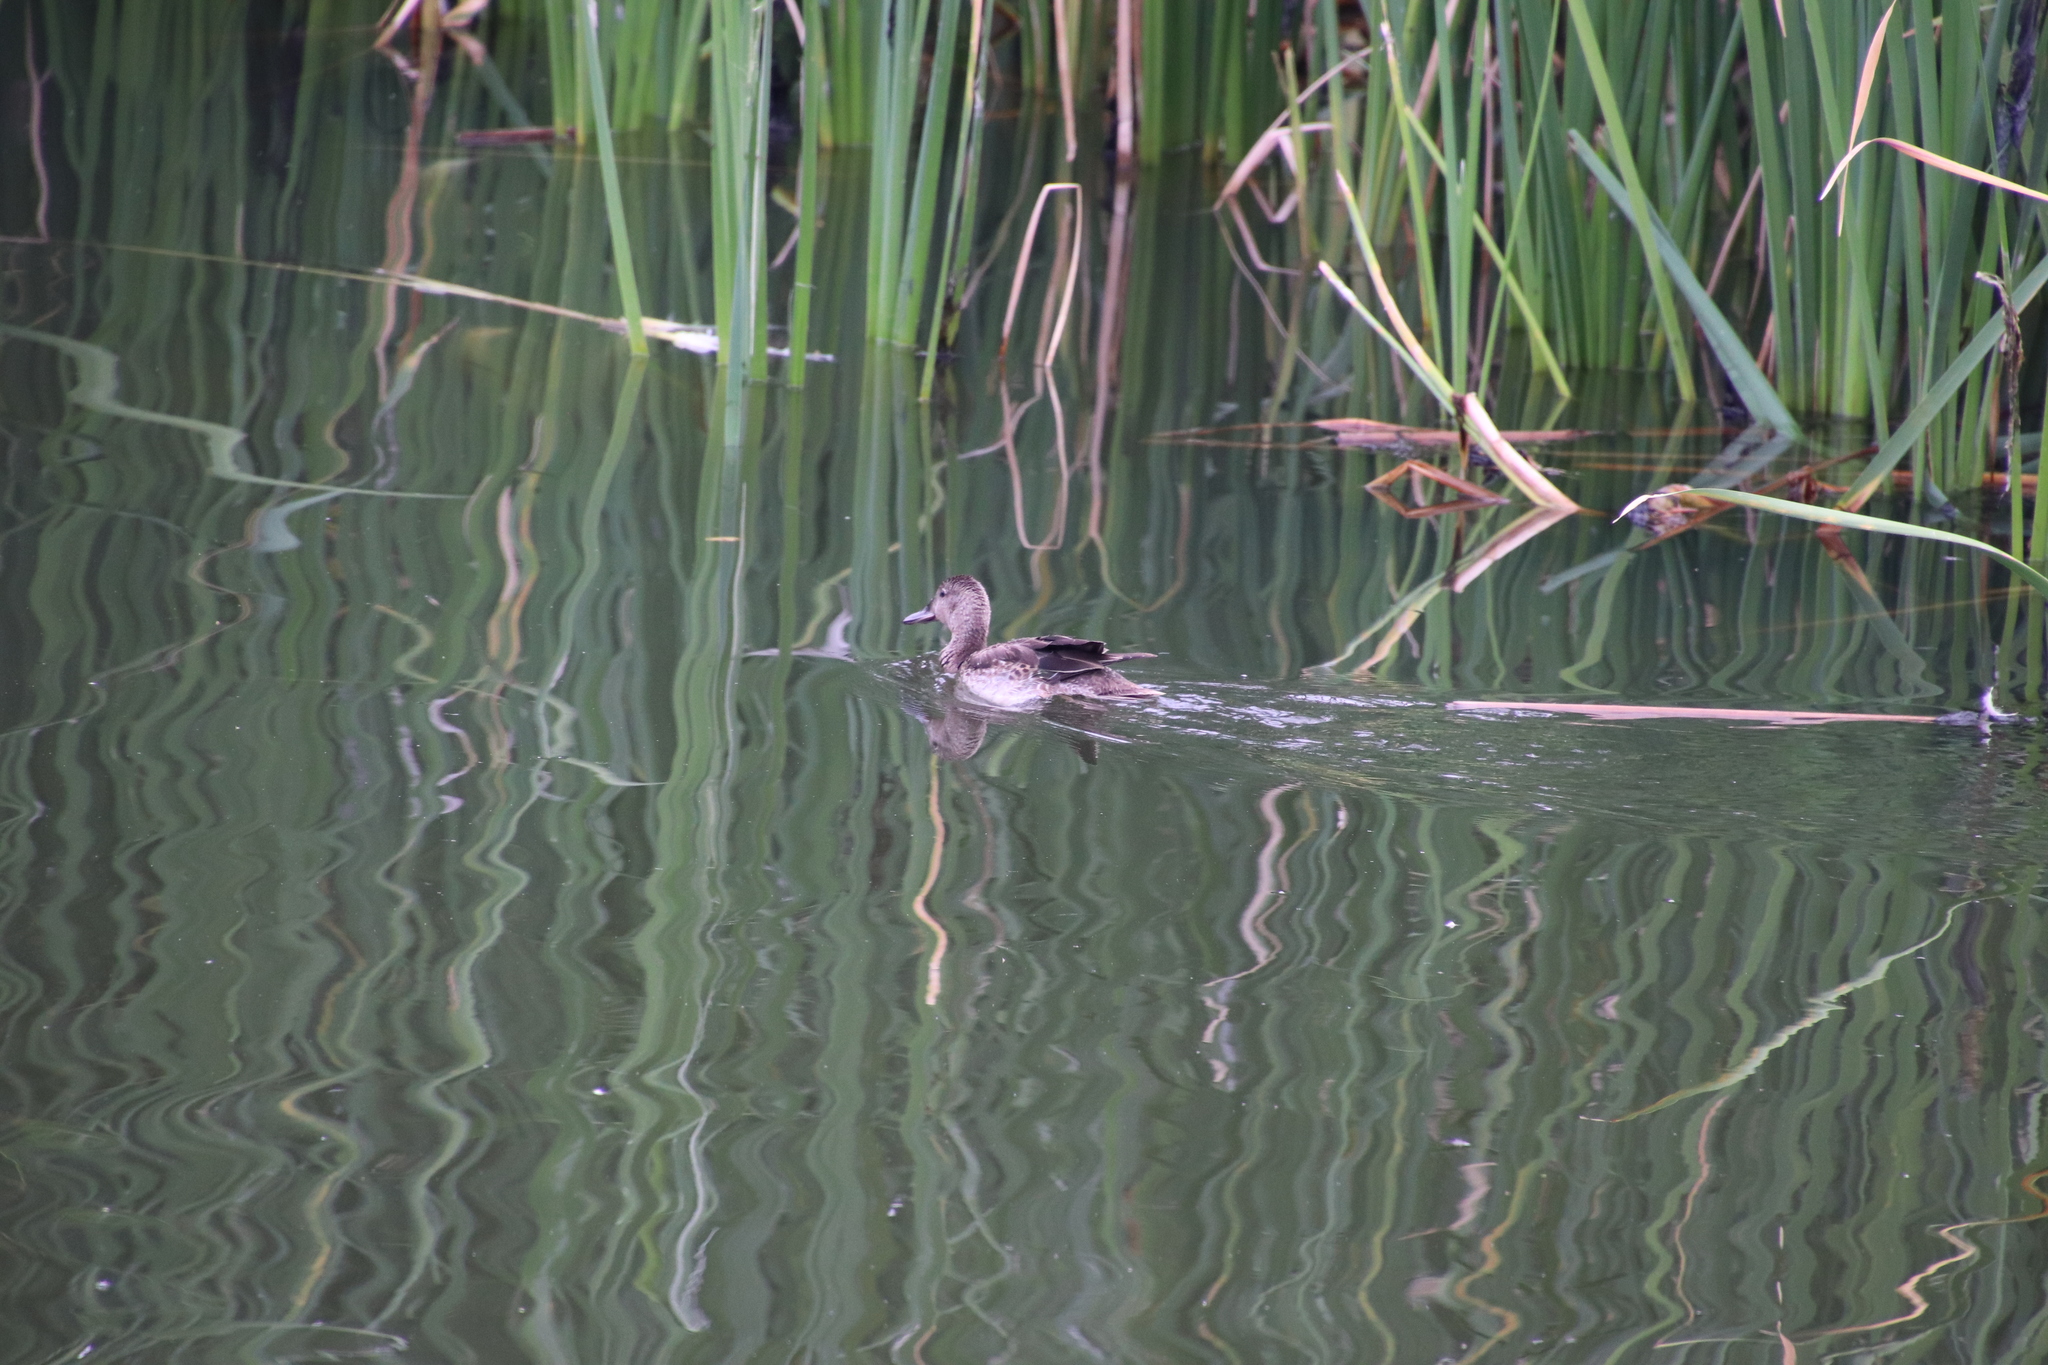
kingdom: Animalia
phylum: Chordata
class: Aves
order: Anseriformes
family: Anatidae
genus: Spatula
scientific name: Spatula cyanoptera
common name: Cinnamon teal
